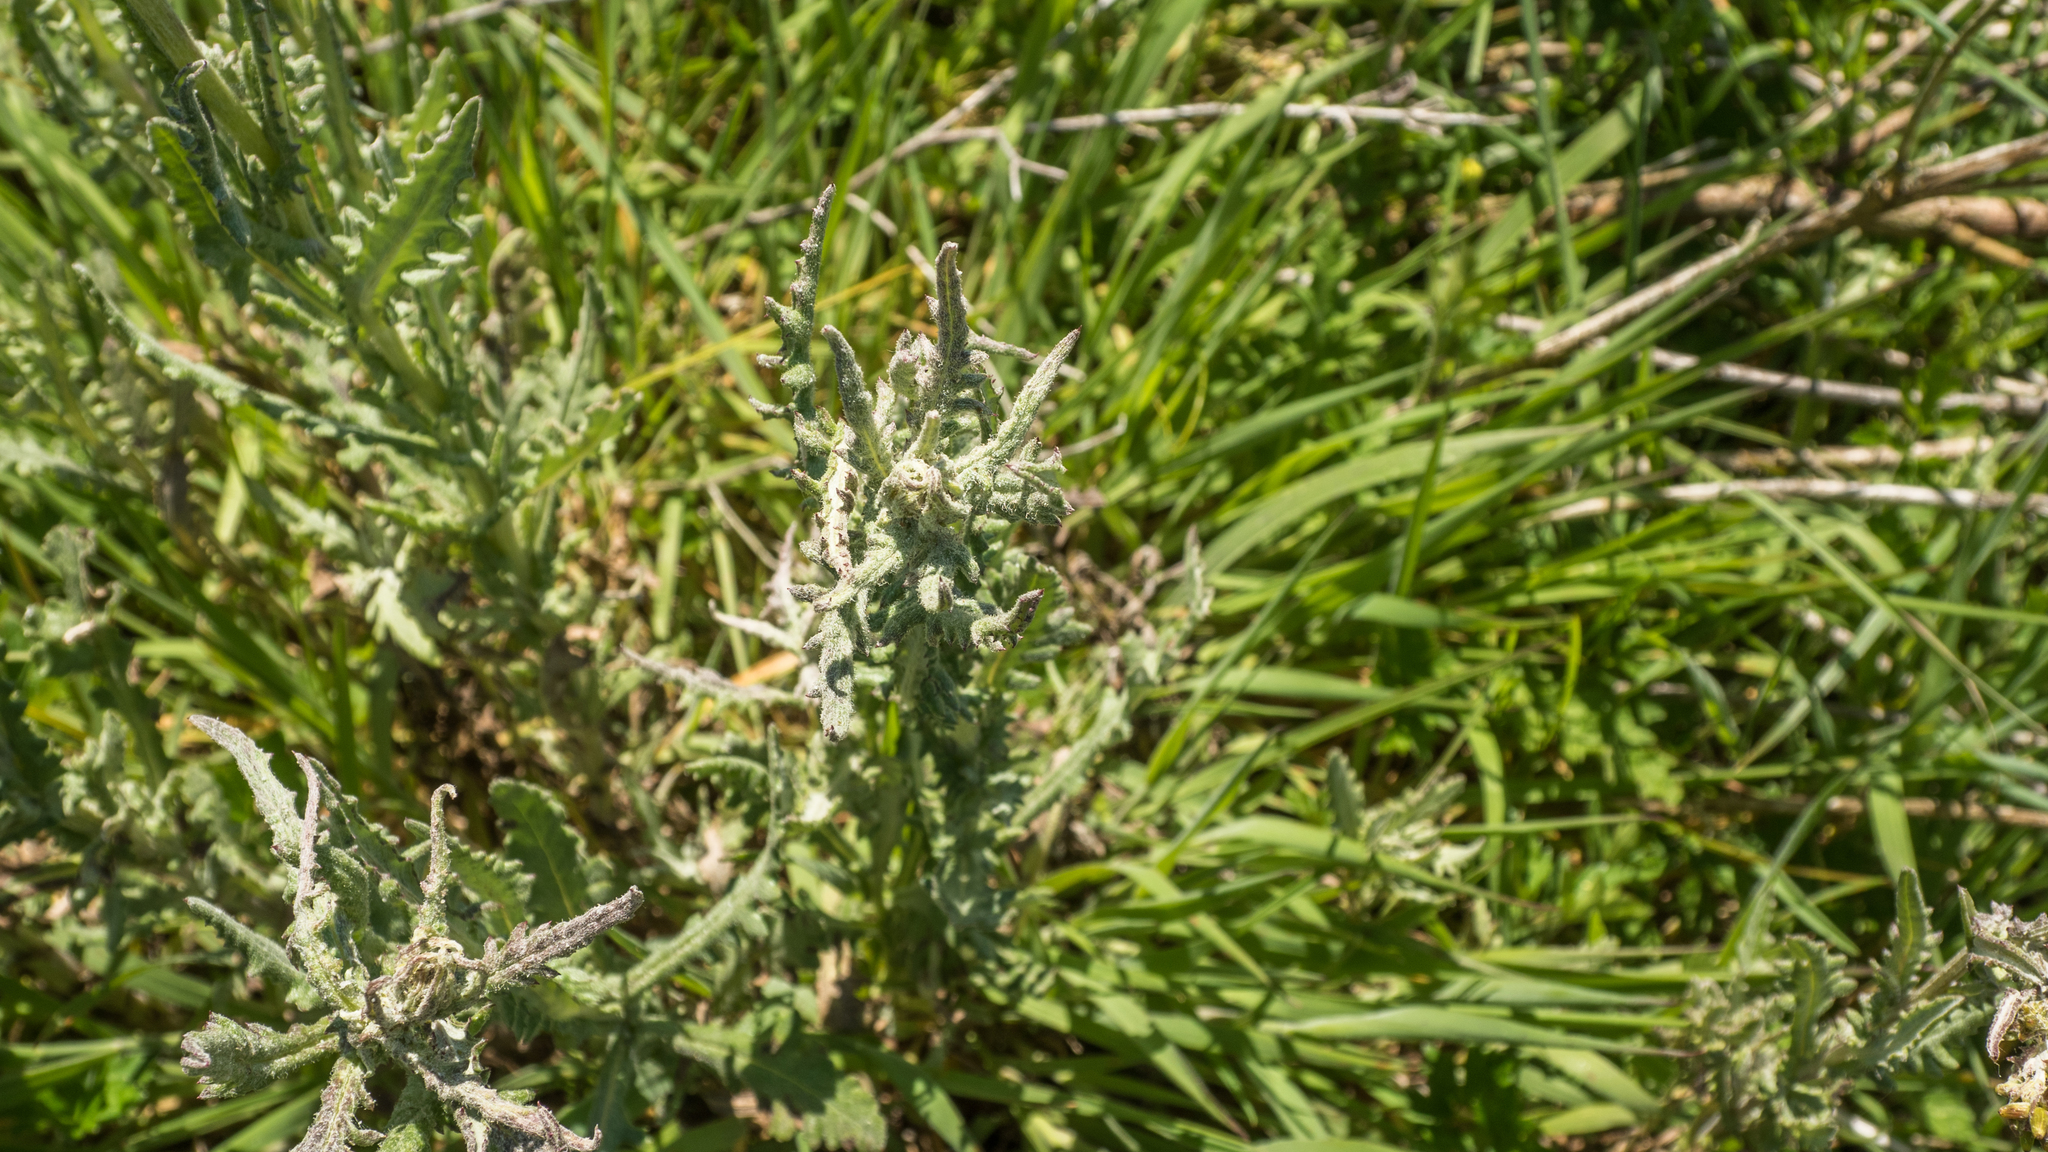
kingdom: Plantae
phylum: Tracheophyta
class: Magnoliopsida
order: Asterales
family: Asteraceae
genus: Senecio
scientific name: Senecio glomeratus
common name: Cutleaf burnweed
